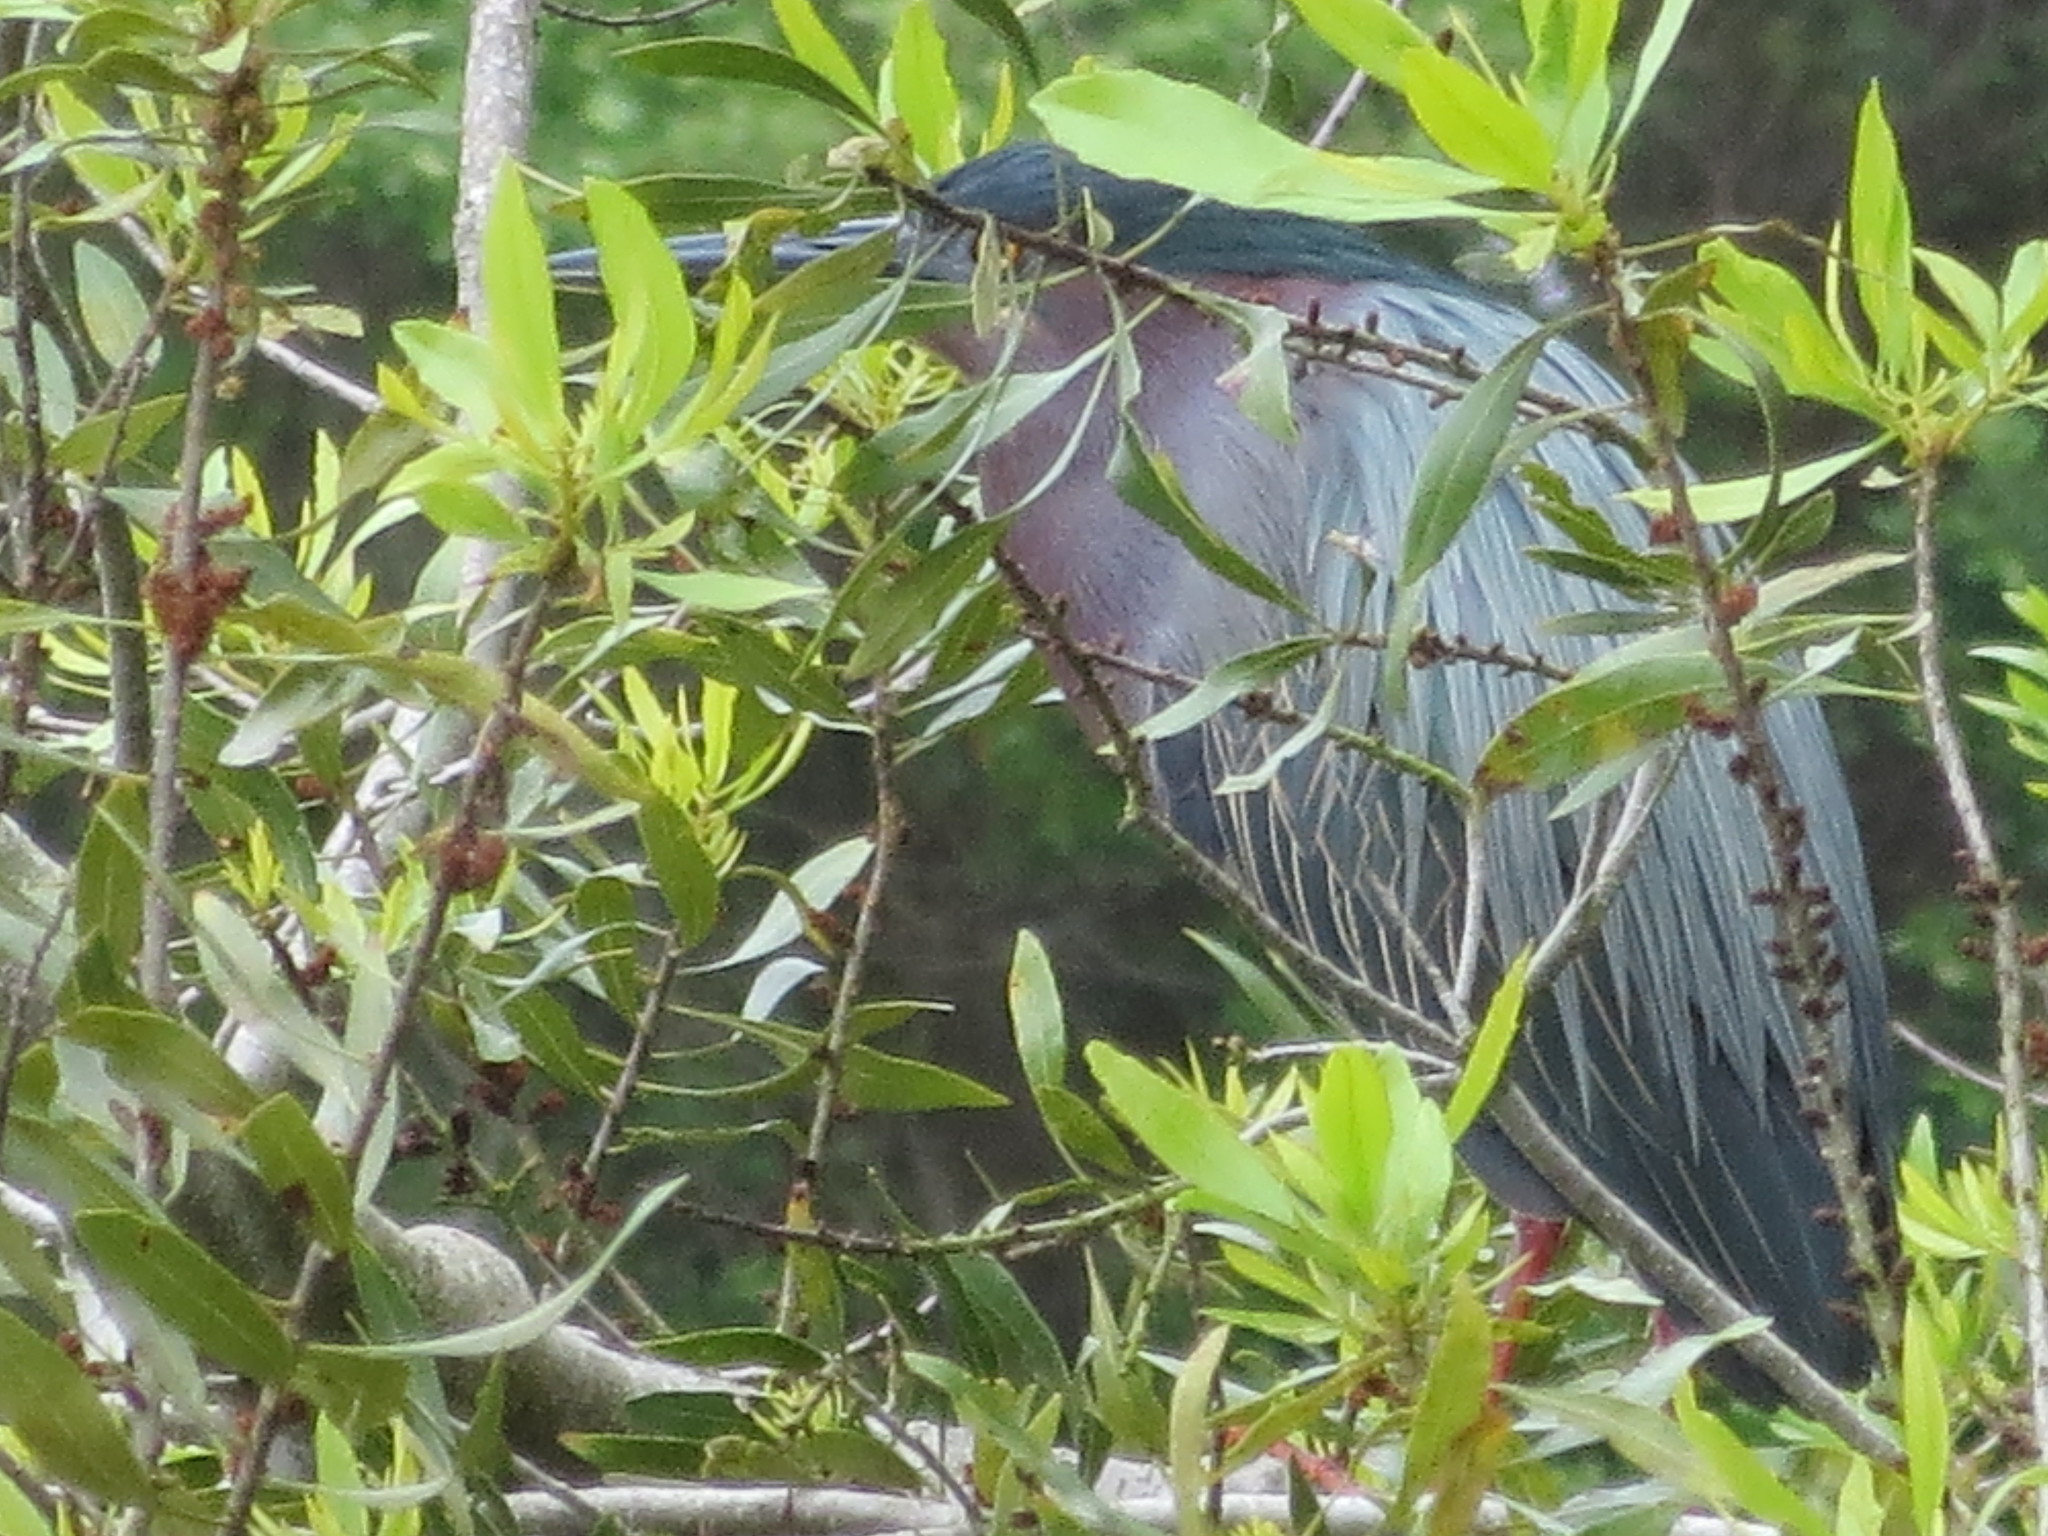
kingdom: Animalia
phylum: Chordata
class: Aves
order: Pelecaniformes
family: Ardeidae
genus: Butorides
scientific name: Butorides virescens
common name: Green heron
